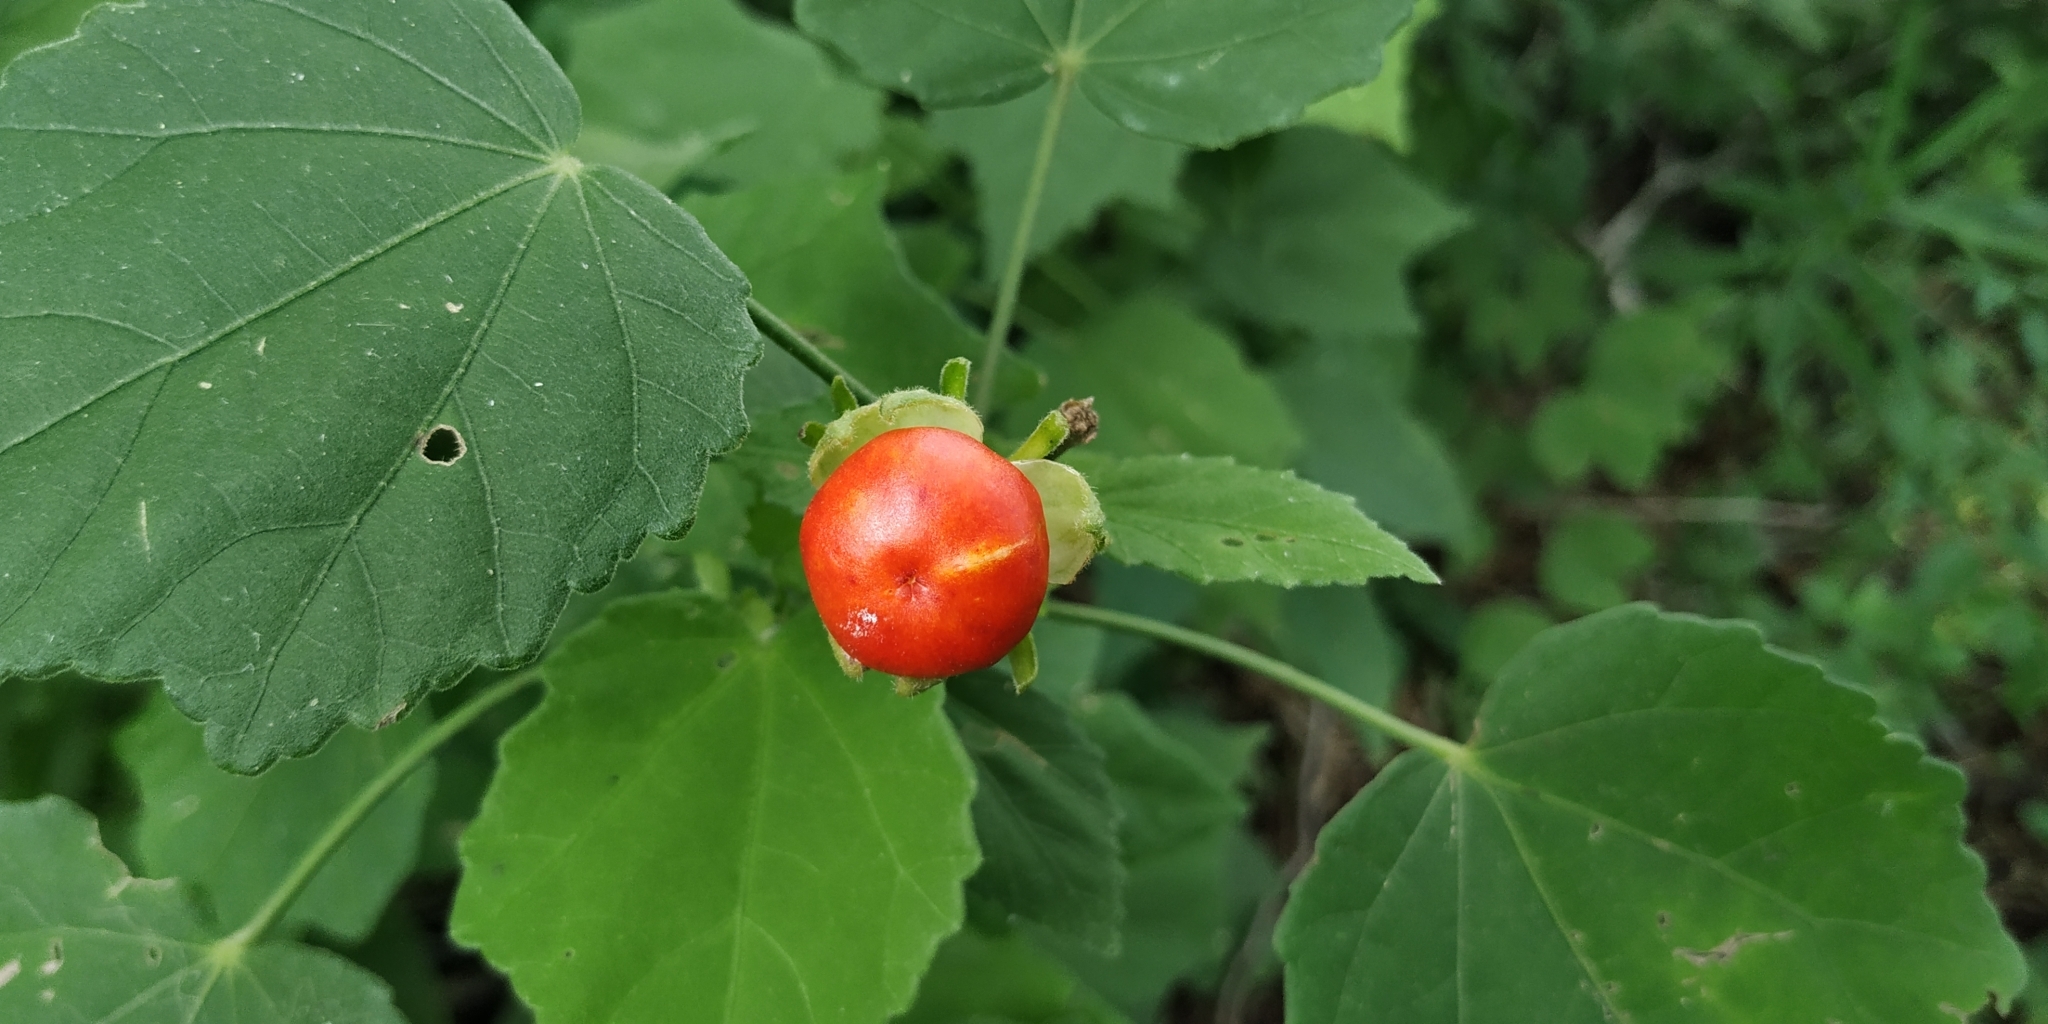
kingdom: Plantae
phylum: Tracheophyta
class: Magnoliopsida
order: Malvales
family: Malvaceae
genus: Malvaviscus
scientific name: Malvaviscus arboreus
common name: Wax mallow
